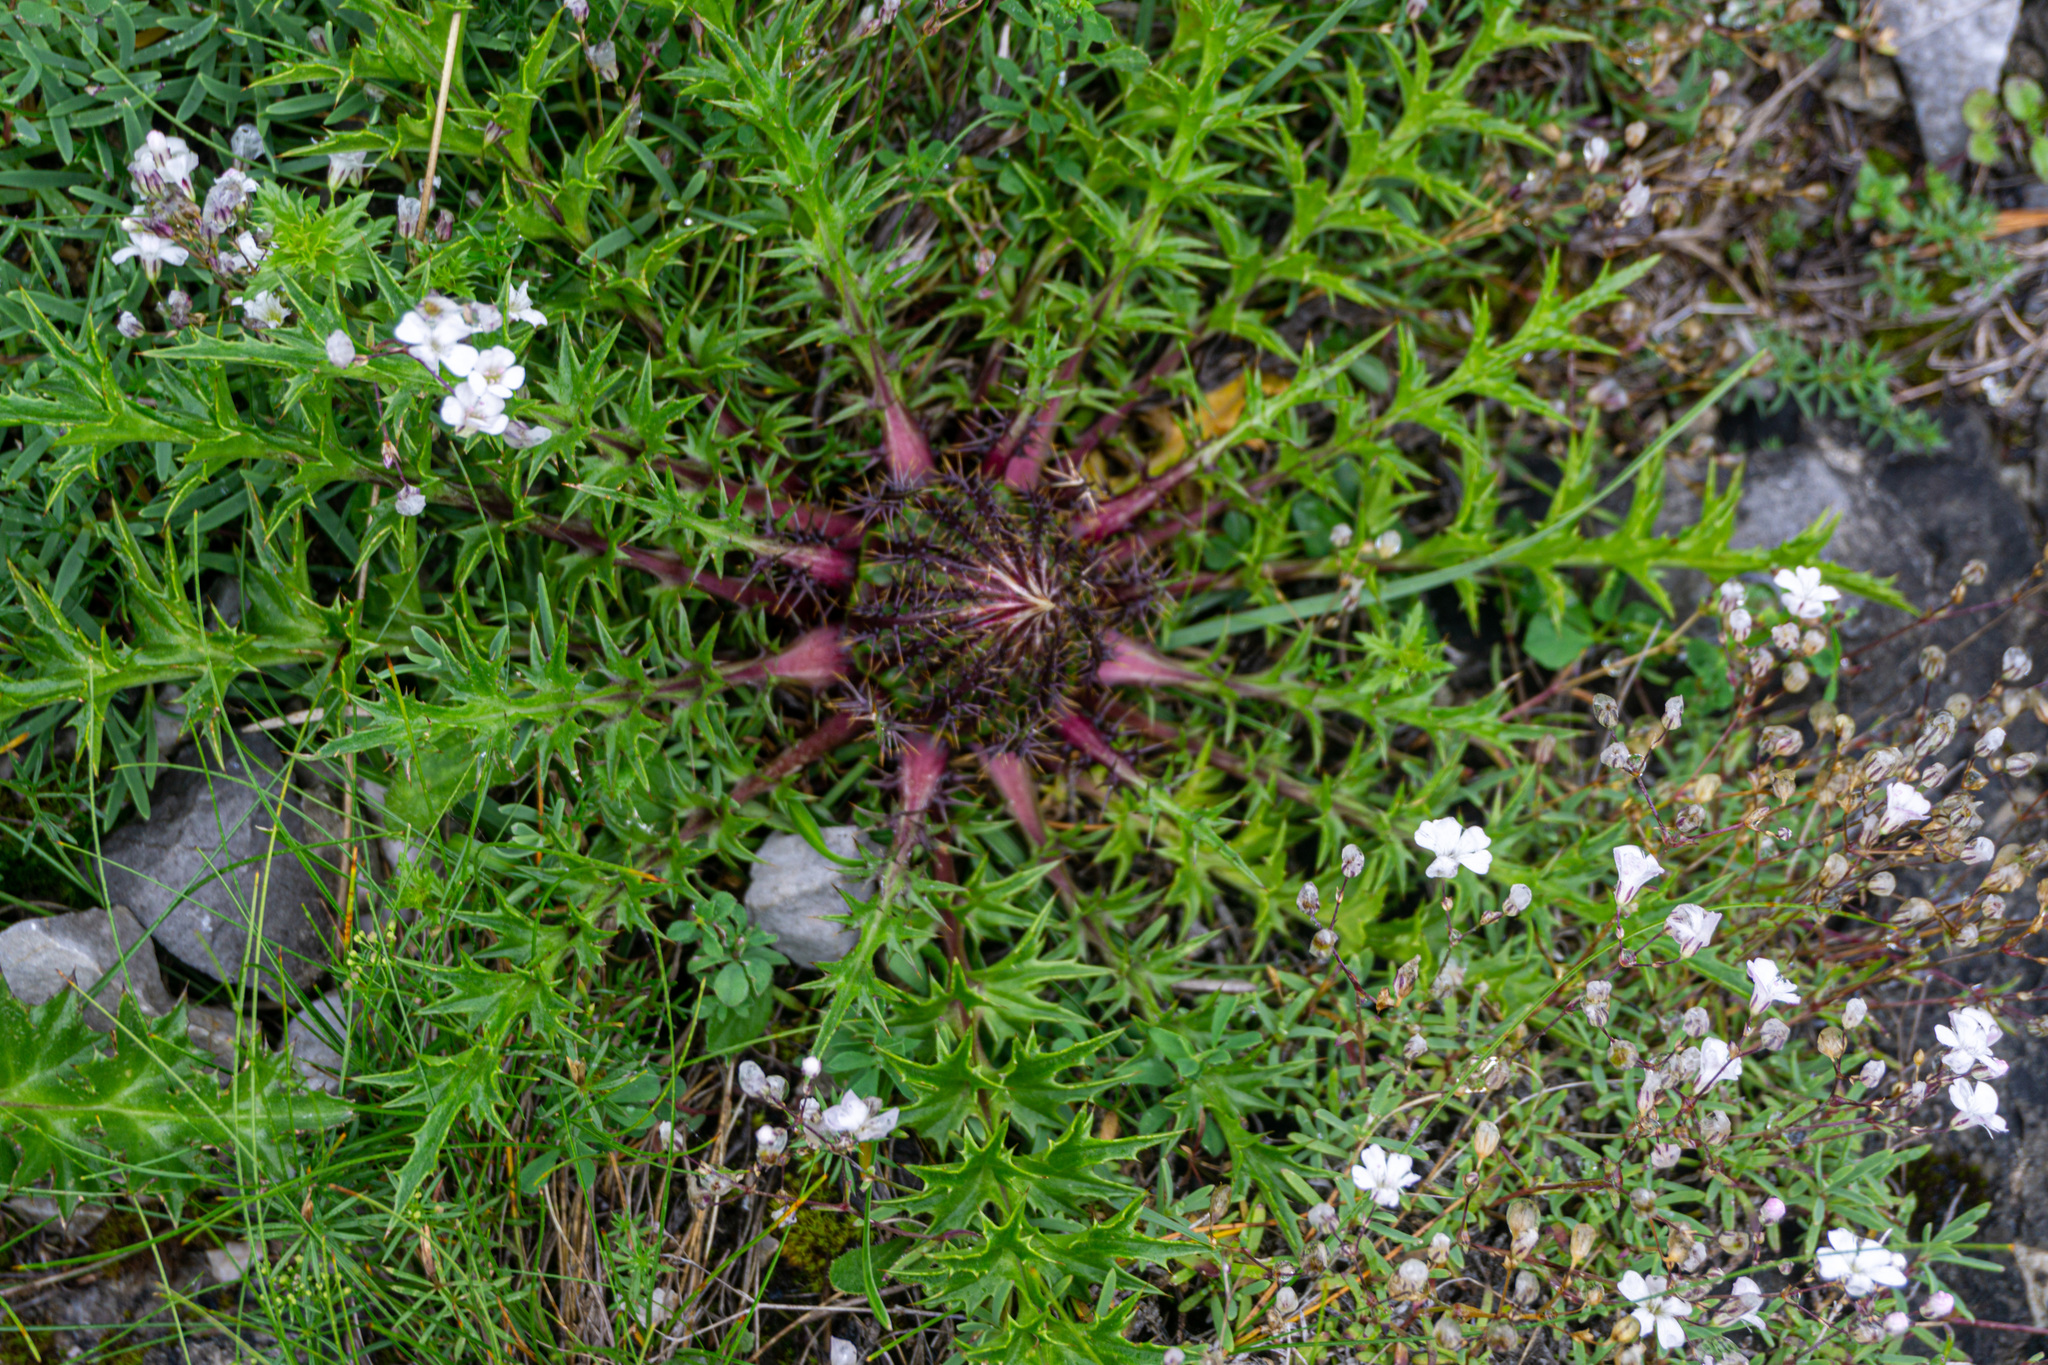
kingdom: Plantae
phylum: Tracheophyta
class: Magnoliopsida
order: Asterales
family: Asteraceae
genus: Carlina
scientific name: Carlina acaulis
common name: Stemless carline thistle
